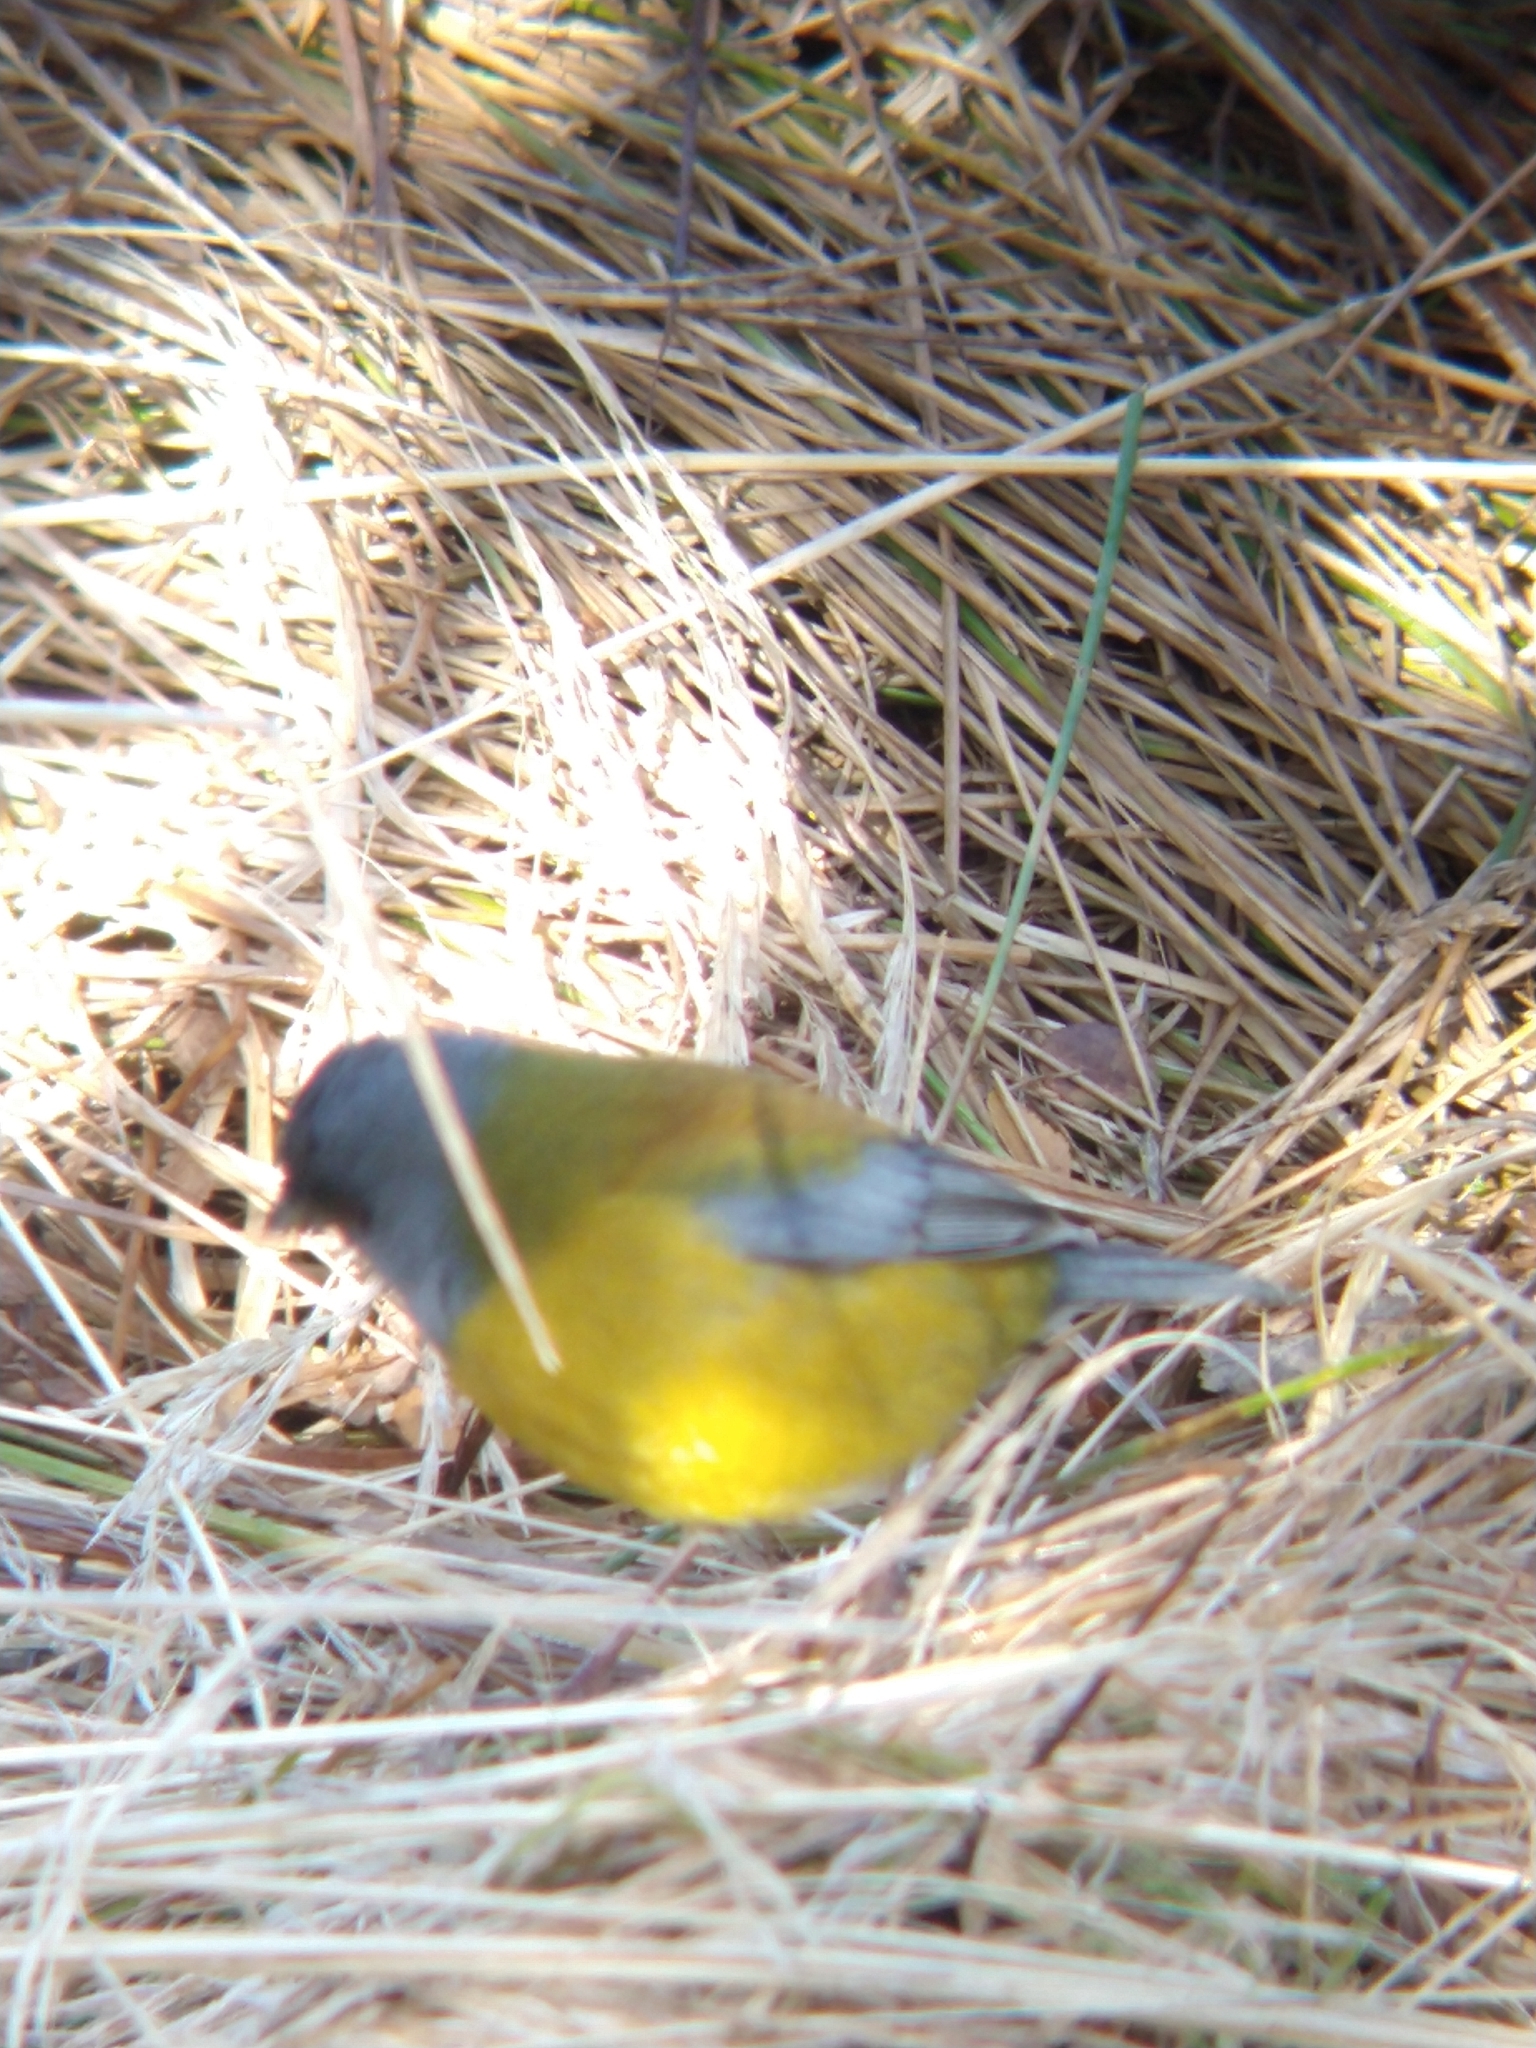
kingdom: Animalia
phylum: Chordata
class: Aves
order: Passeriformes
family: Thraupidae
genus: Phrygilus
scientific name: Phrygilus patagonicus
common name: Patagonian sierra finch
